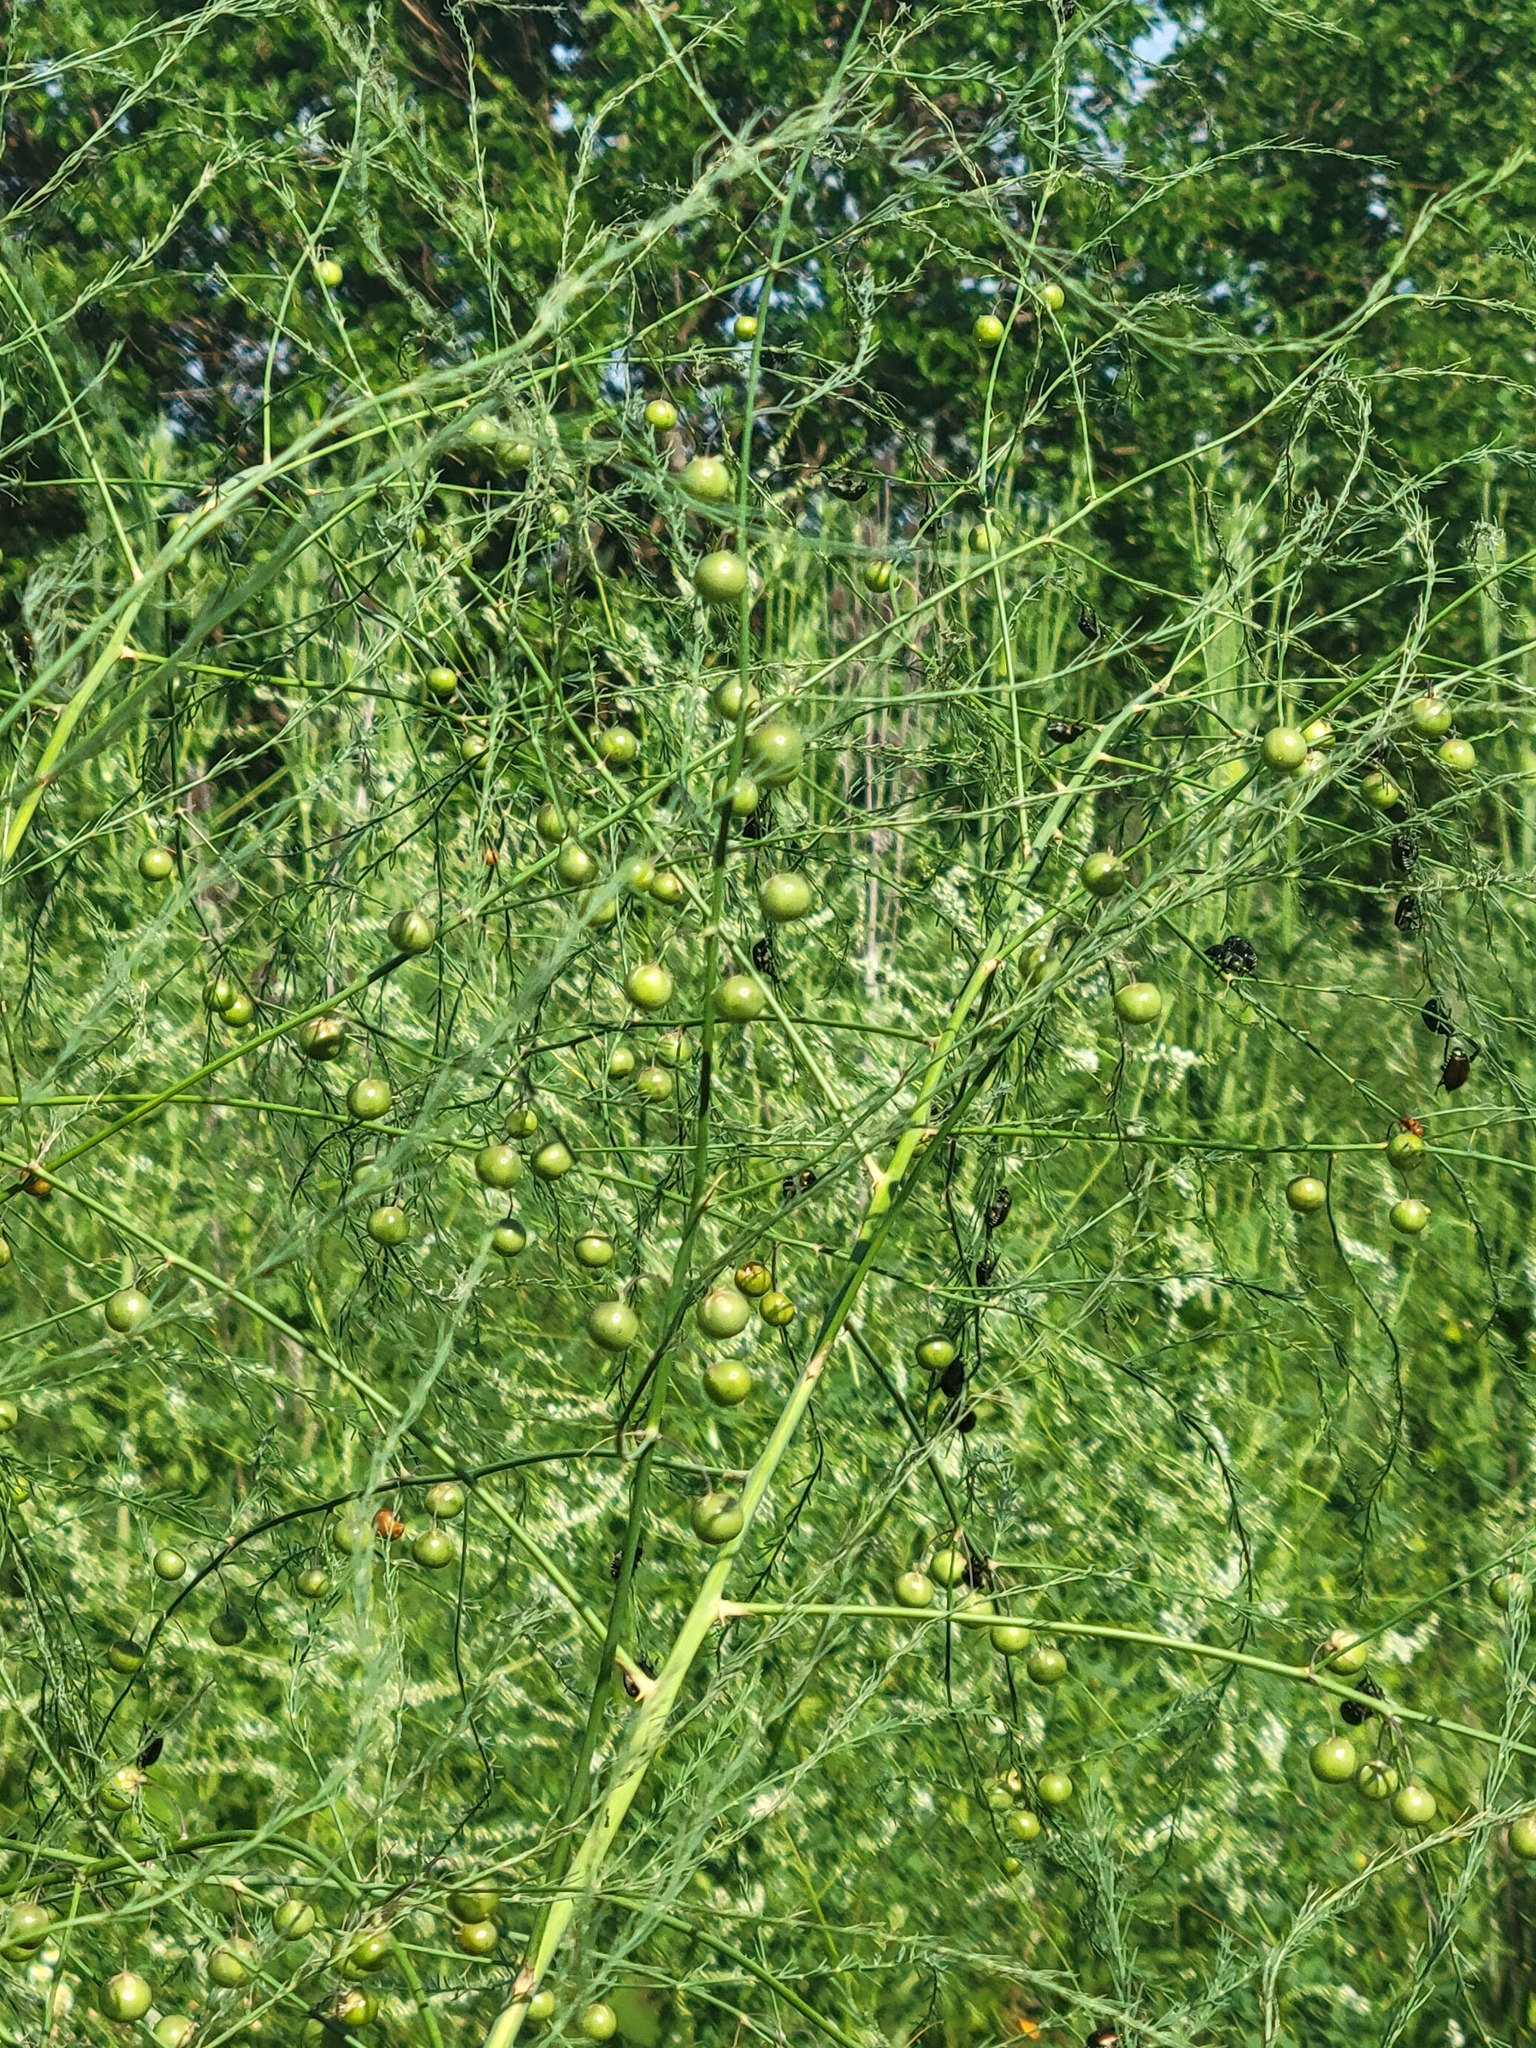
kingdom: Animalia
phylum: Arthropoda
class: Insecta
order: Coleoptera
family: Scarabaeidae
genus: Popillia
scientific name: Popillia japonica
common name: Japanese beetle
